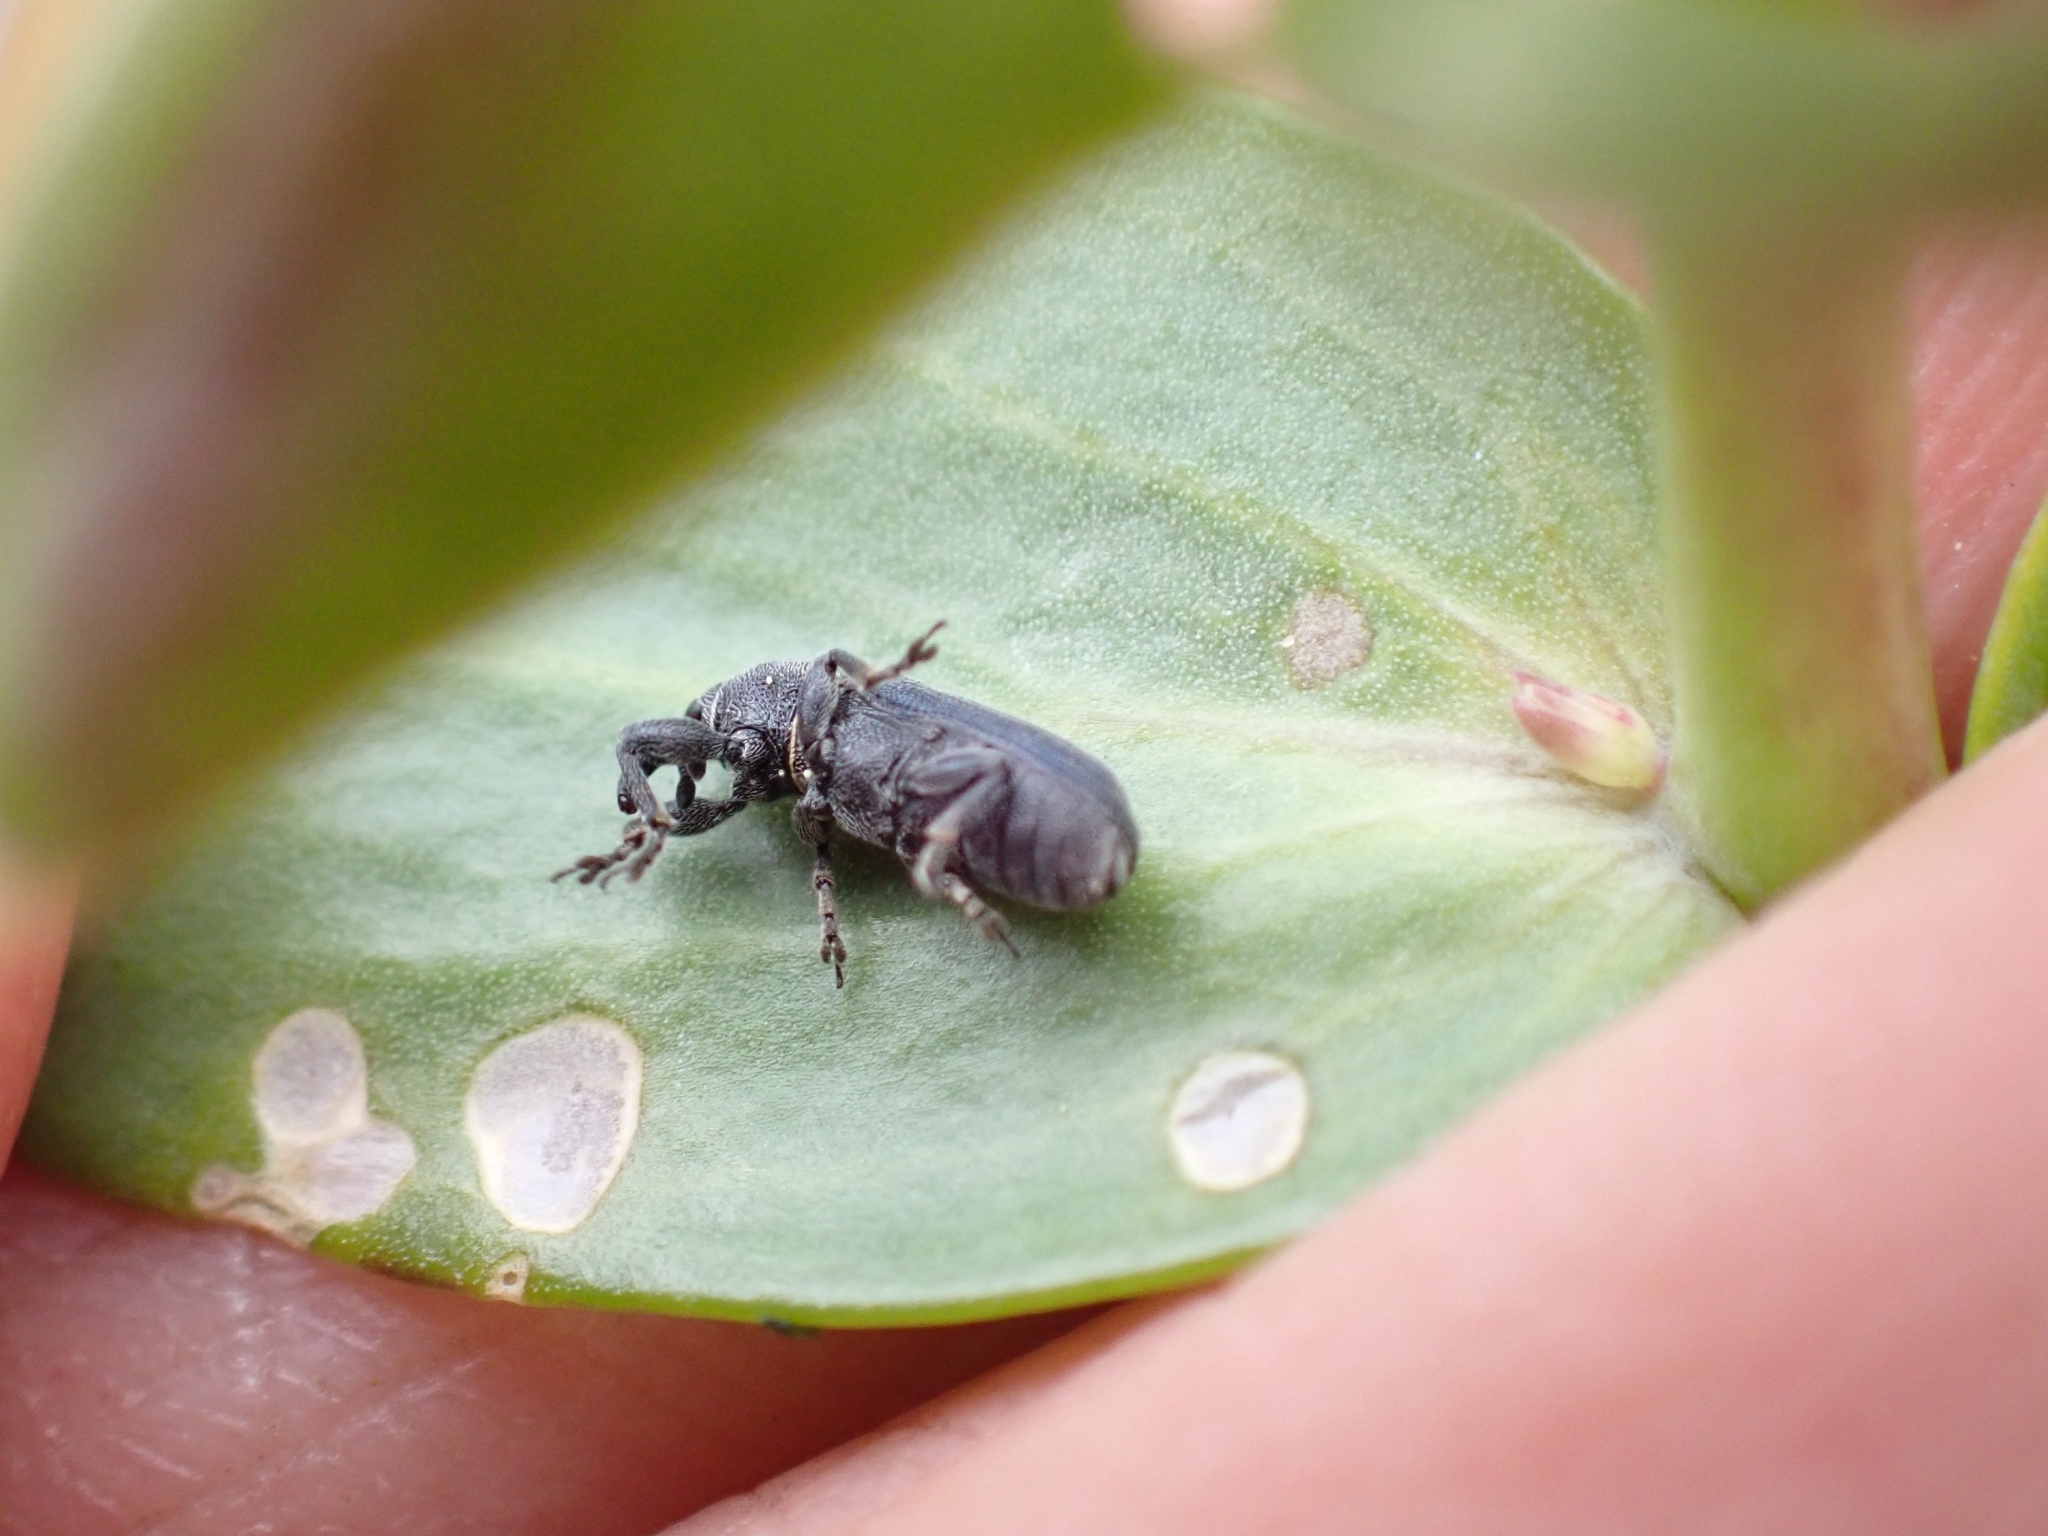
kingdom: Animalia
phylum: Arthropoda
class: Insecta
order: Coleoptera
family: Curculionidae
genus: Mecinus
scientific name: Mecinus janthiniformis
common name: Dalmatian toadflax stem weevil
